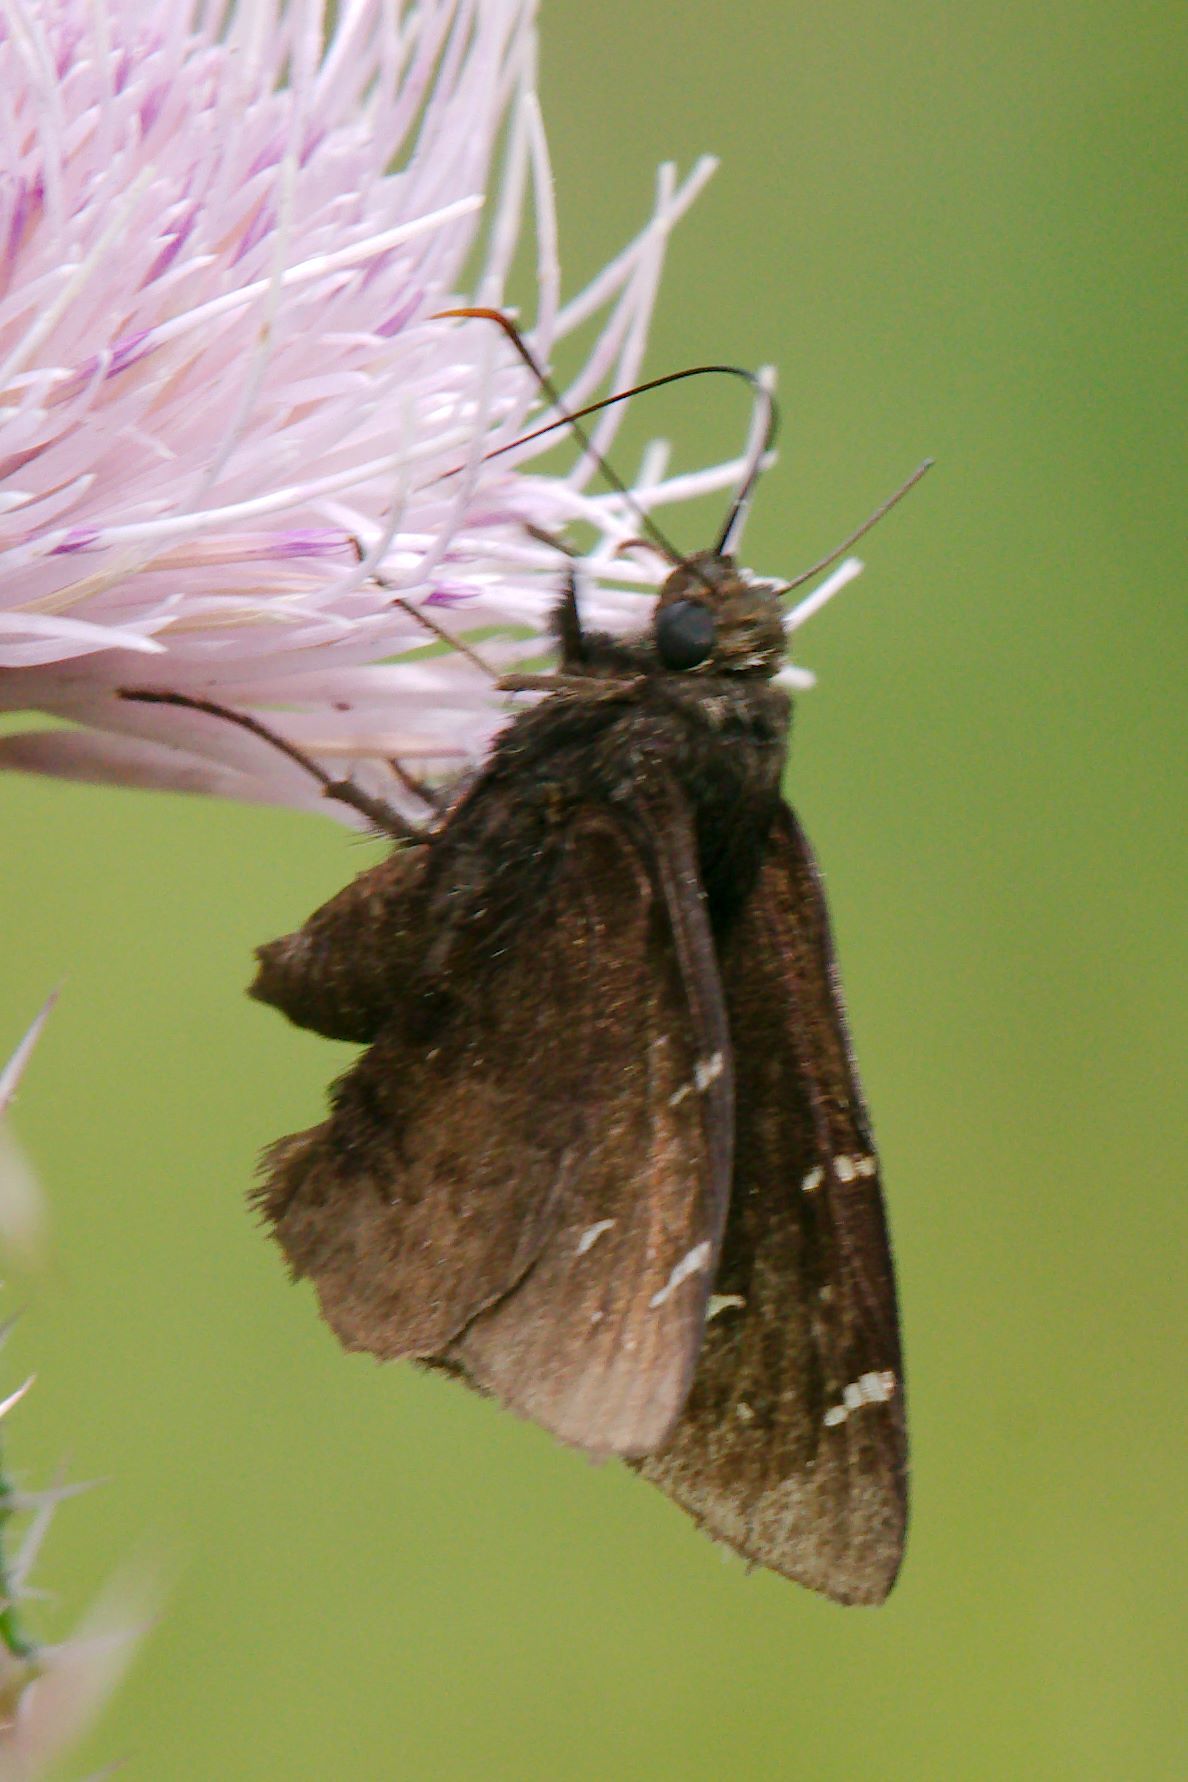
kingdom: Animalia
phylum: Arthropoda
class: Insecta
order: Lepidoptera
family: Hesperiidae
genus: Thorybes
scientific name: Thorybes pylades
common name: Northern cloudywing
